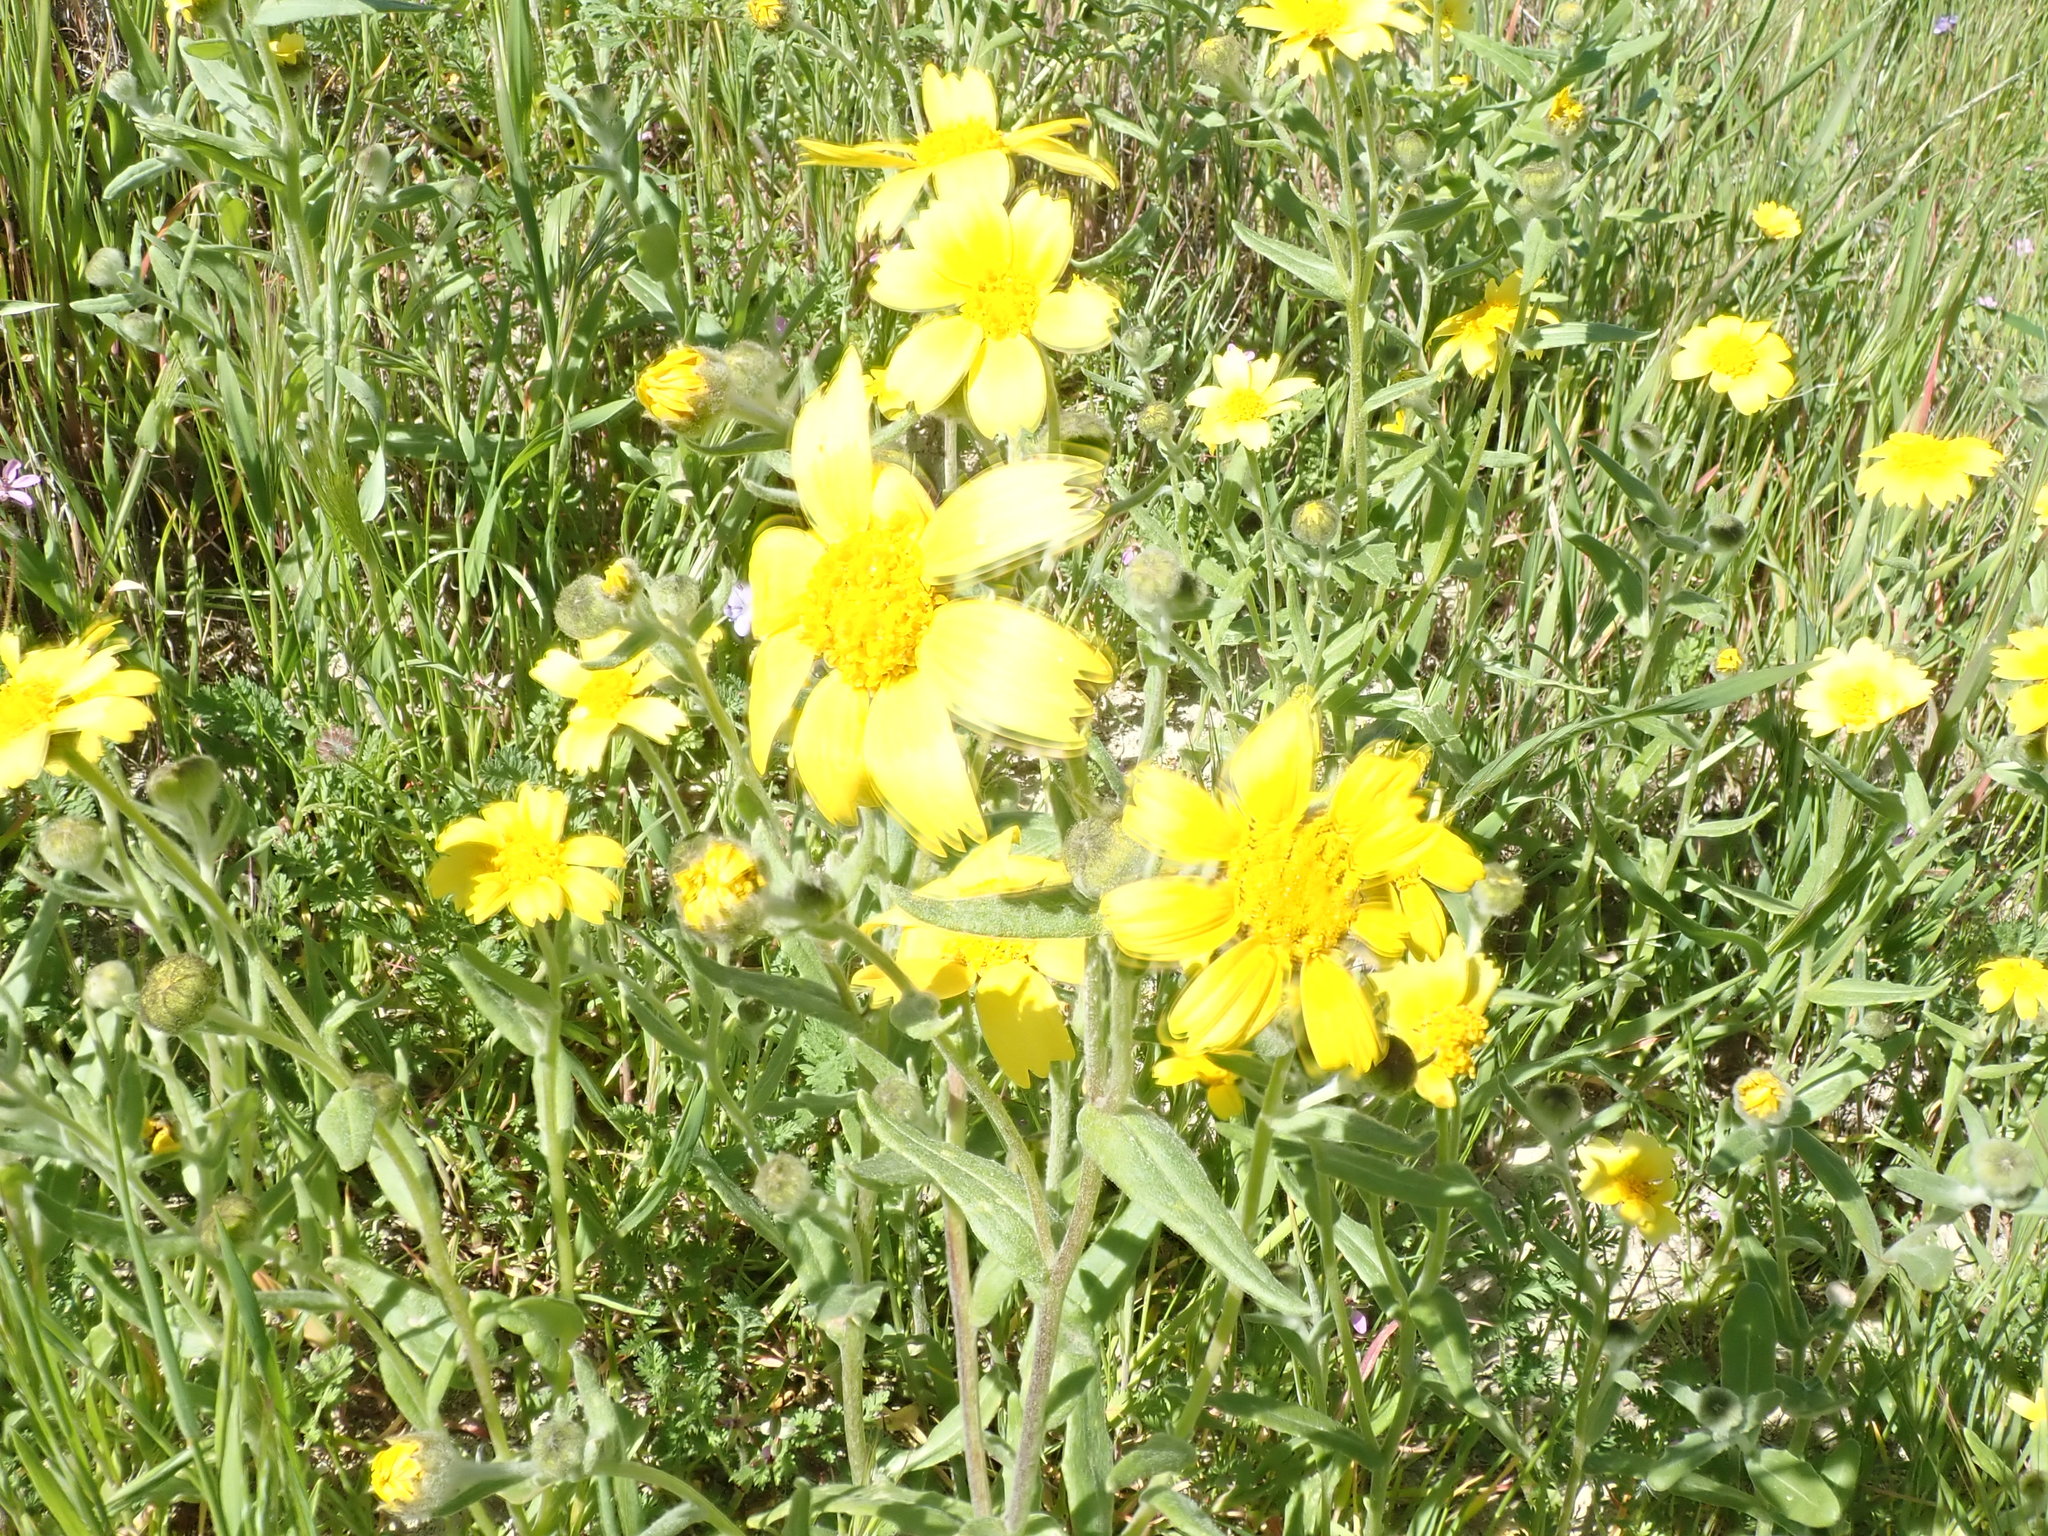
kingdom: Plantae
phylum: Tracheophyta
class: Magnoliopsida
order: Asterales
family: Asteraceae
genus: Monolopia
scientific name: Monolopia lanceolata
